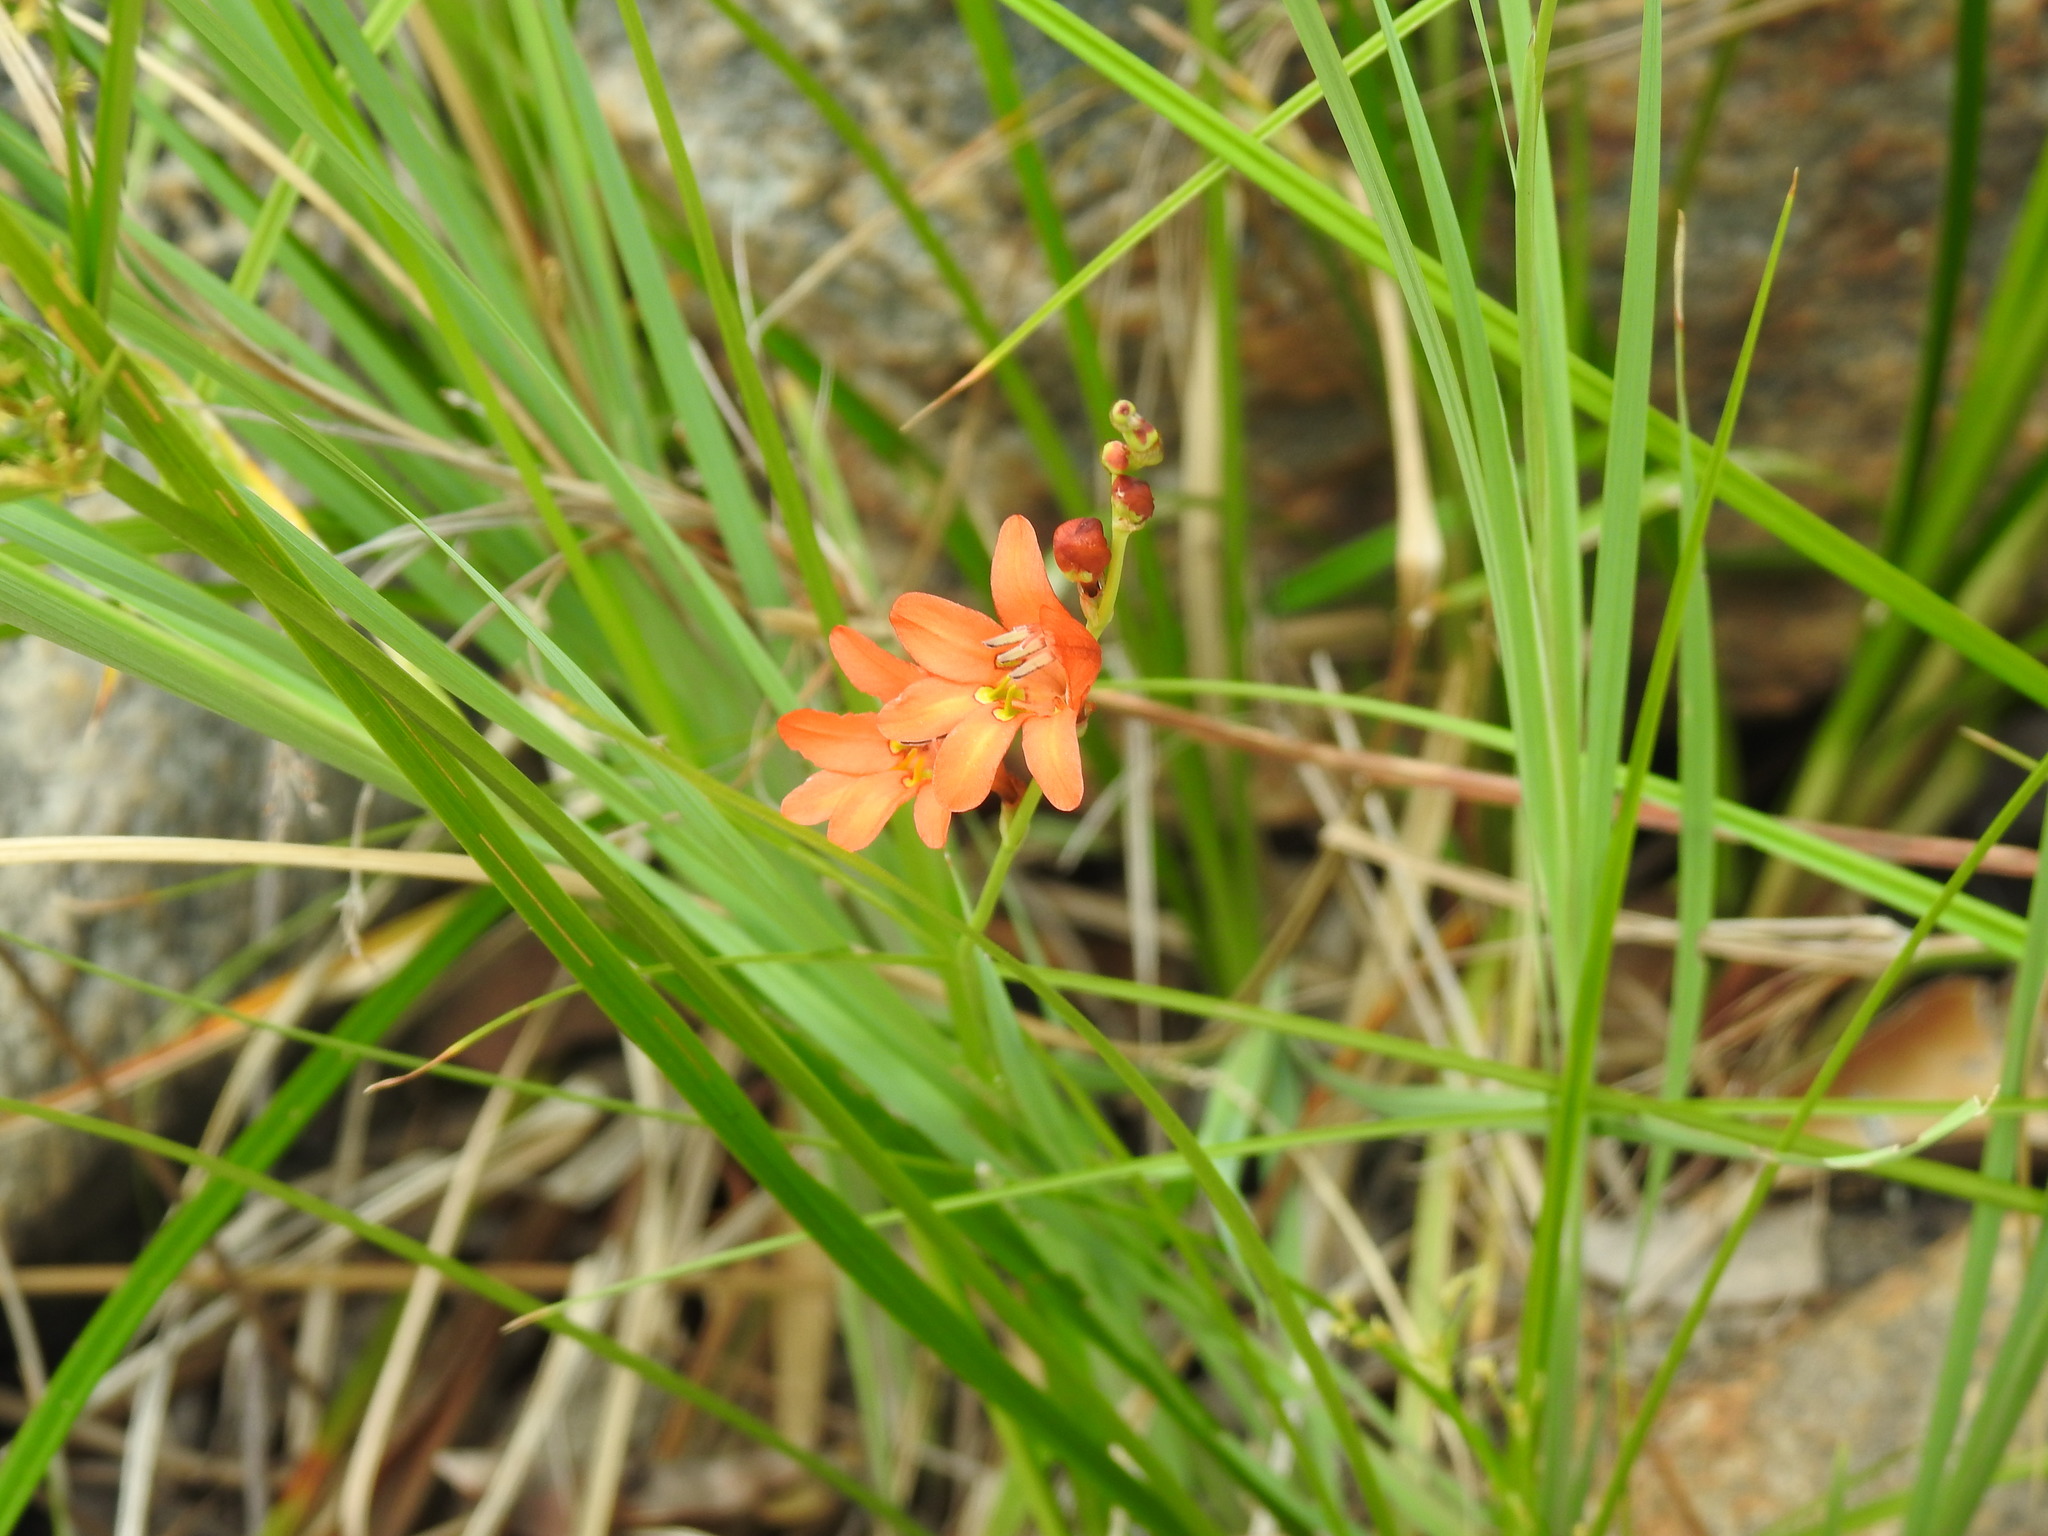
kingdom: Plantae
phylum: Tracheophyta
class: Liliopsida
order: Asparagales
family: Iridaceae
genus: Tritonia
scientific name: Tritonia nelsonii
